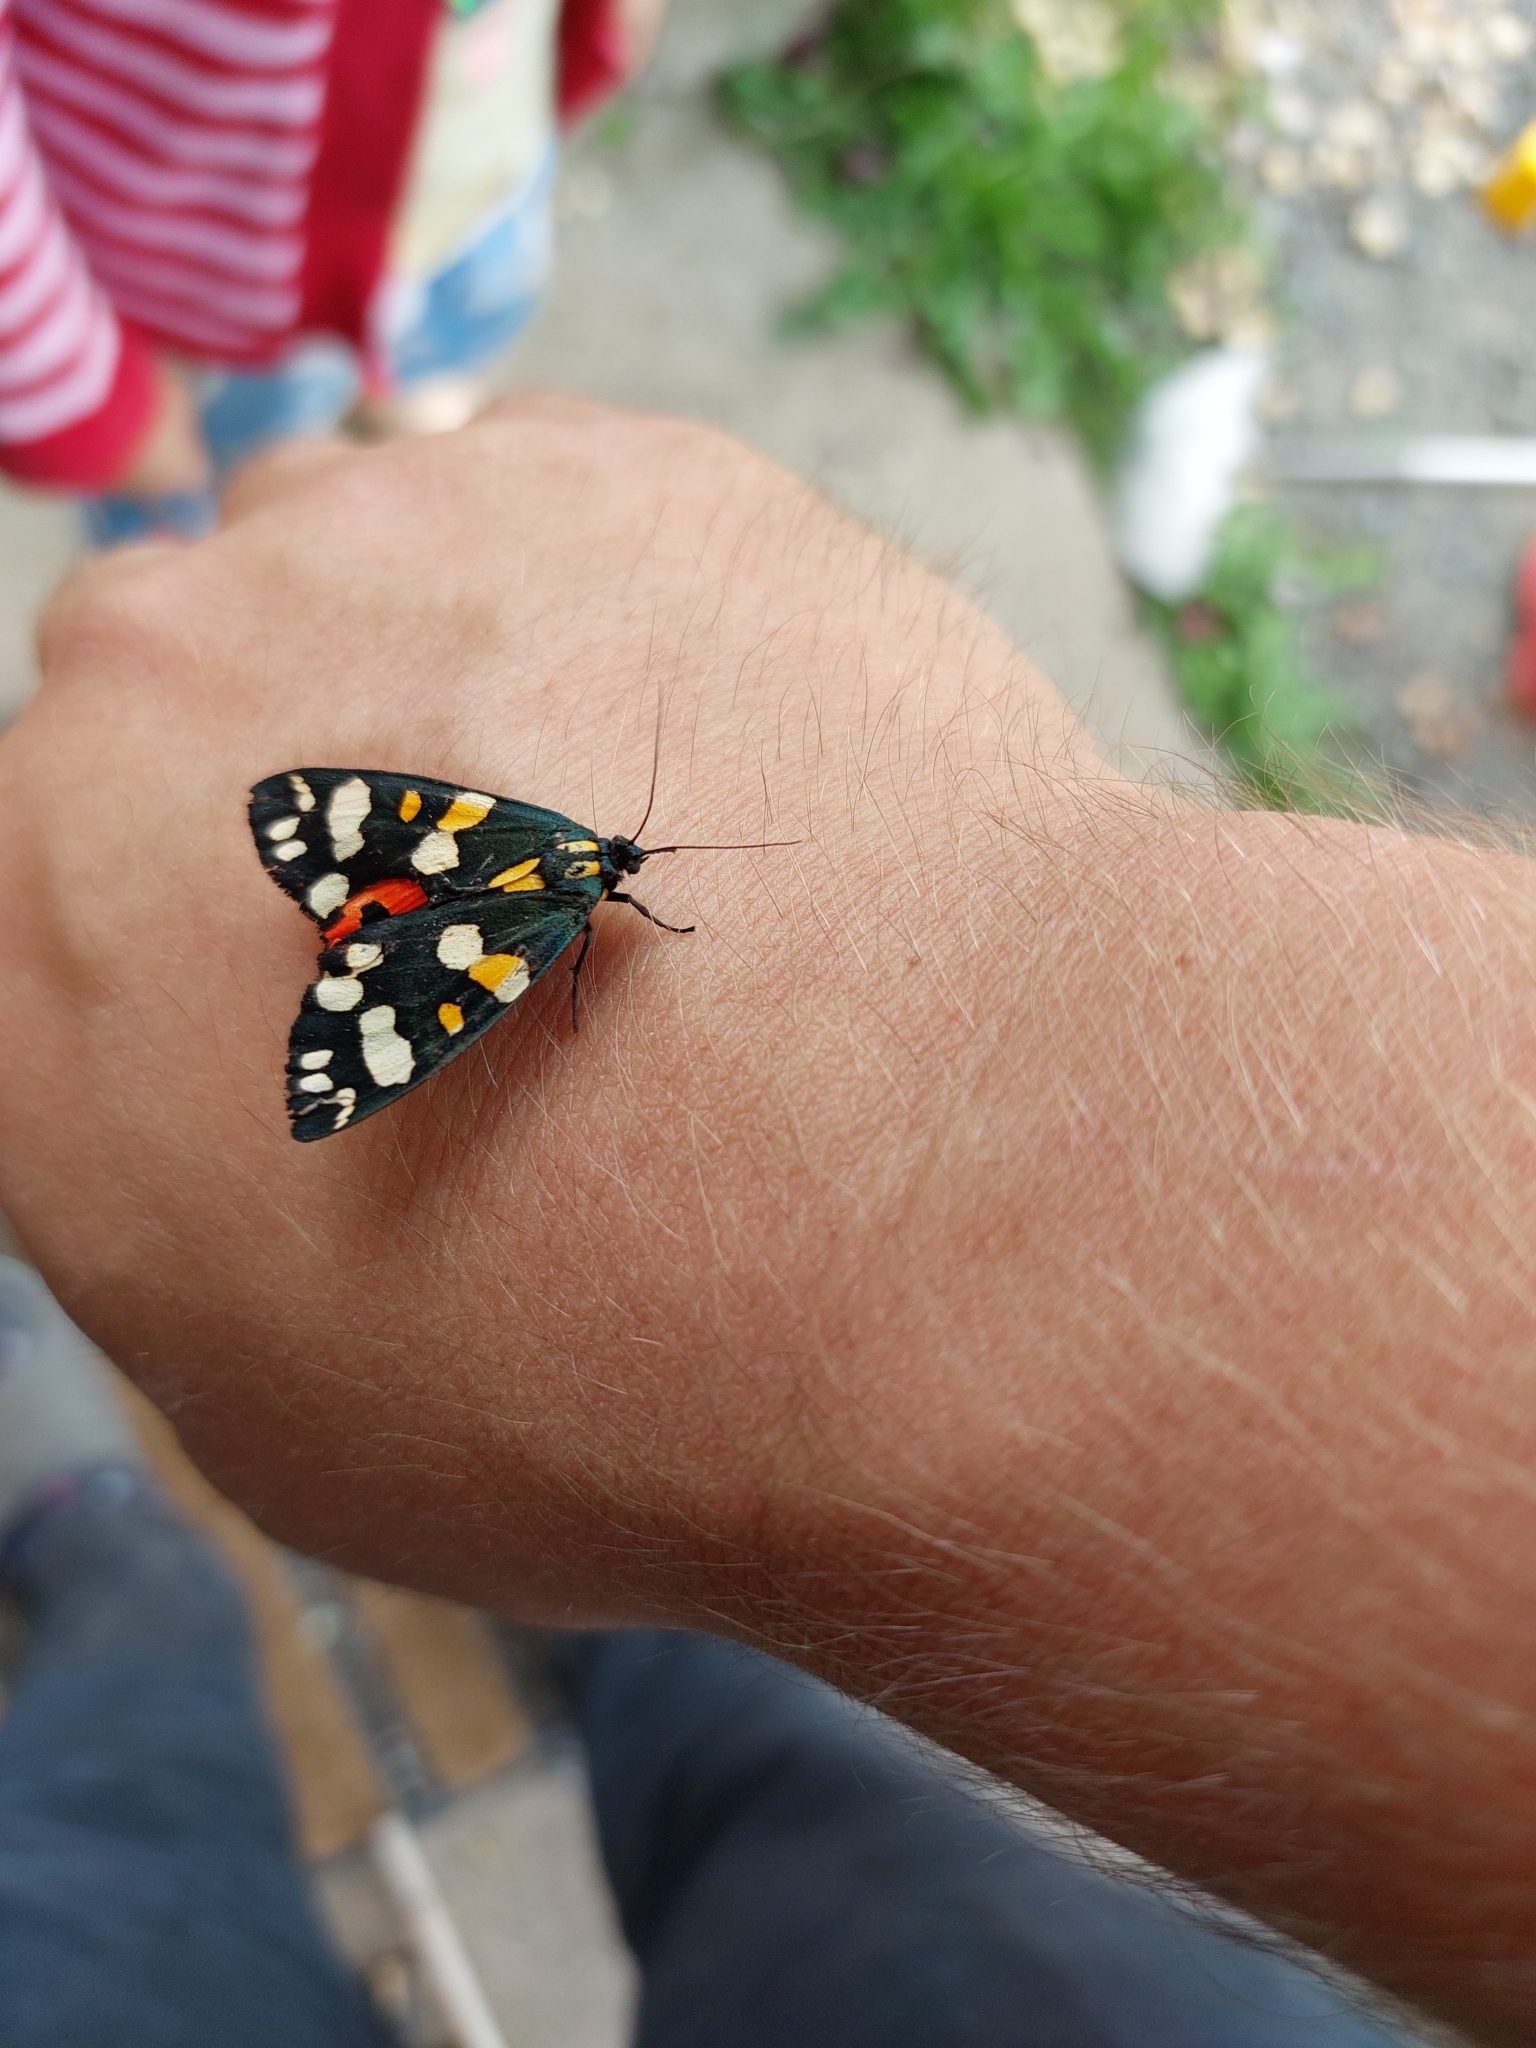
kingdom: Animalia
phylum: Arthropoda
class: Insecta
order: Lepidoptera
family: Erebidae
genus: Callimorpha
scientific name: Callimorpha dominula
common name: Scarlet tiger
